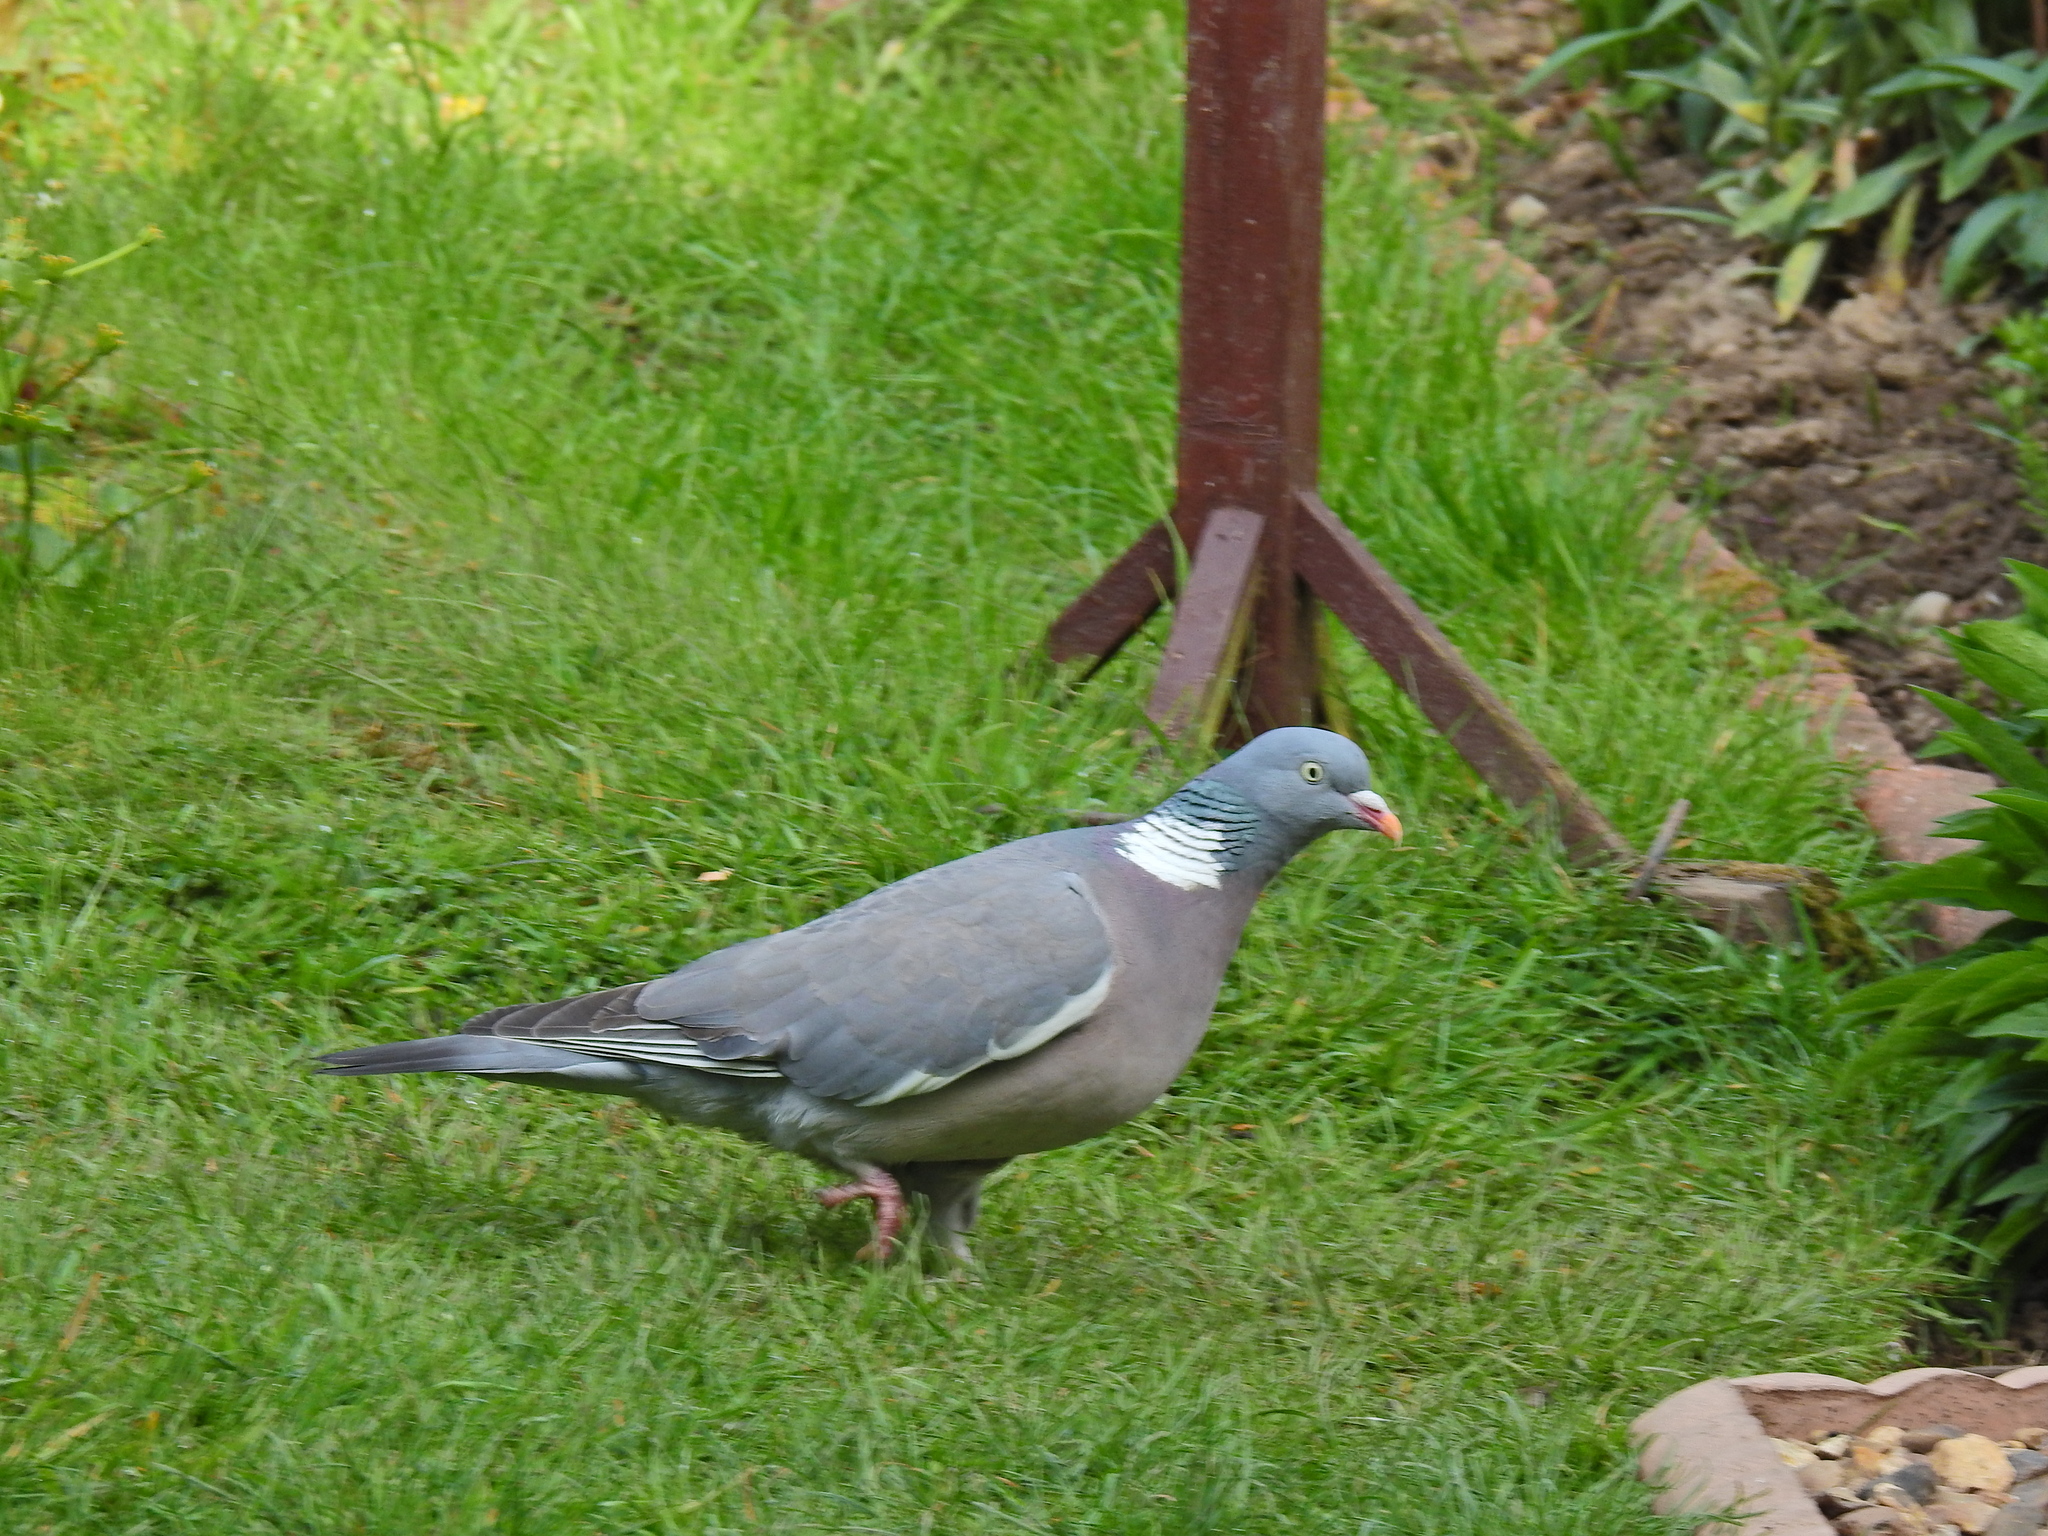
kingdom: Animalia
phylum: Chordata
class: Aves
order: Columbiformes
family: Columbidae
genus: Columba
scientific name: Columba palumbus
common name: Common wood pigeon
